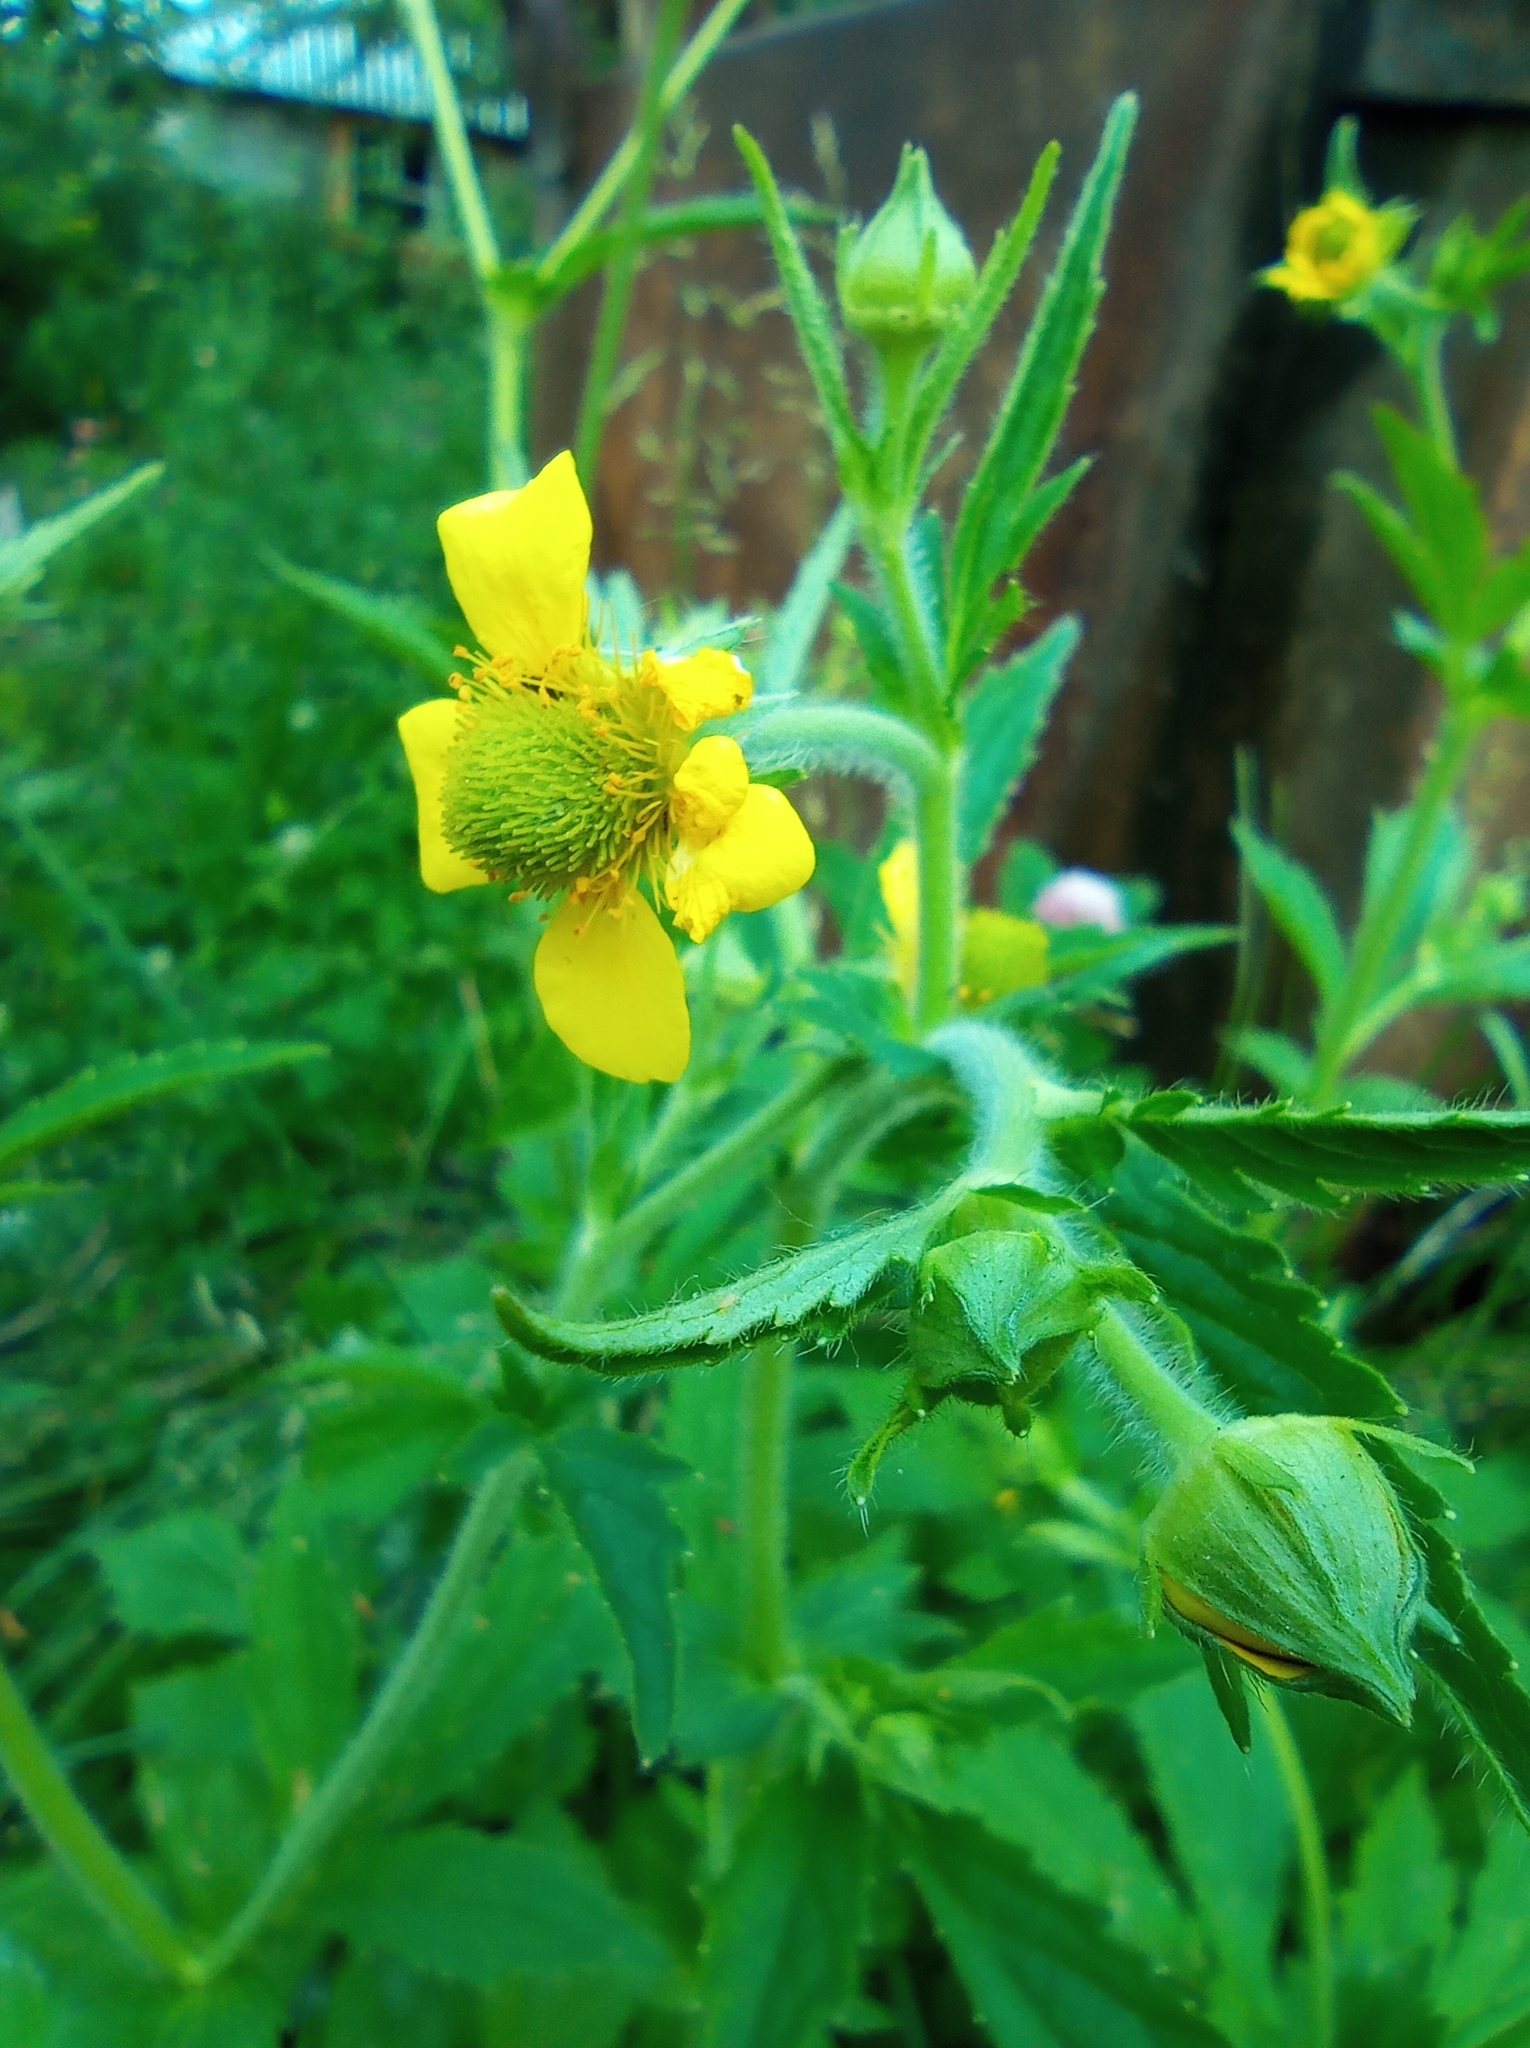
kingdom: Plantae
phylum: Tracheophyta
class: Magnoliopsida
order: Rosales
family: Rosaceae
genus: Geum
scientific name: Geum aleppicum
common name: Yellow avens
